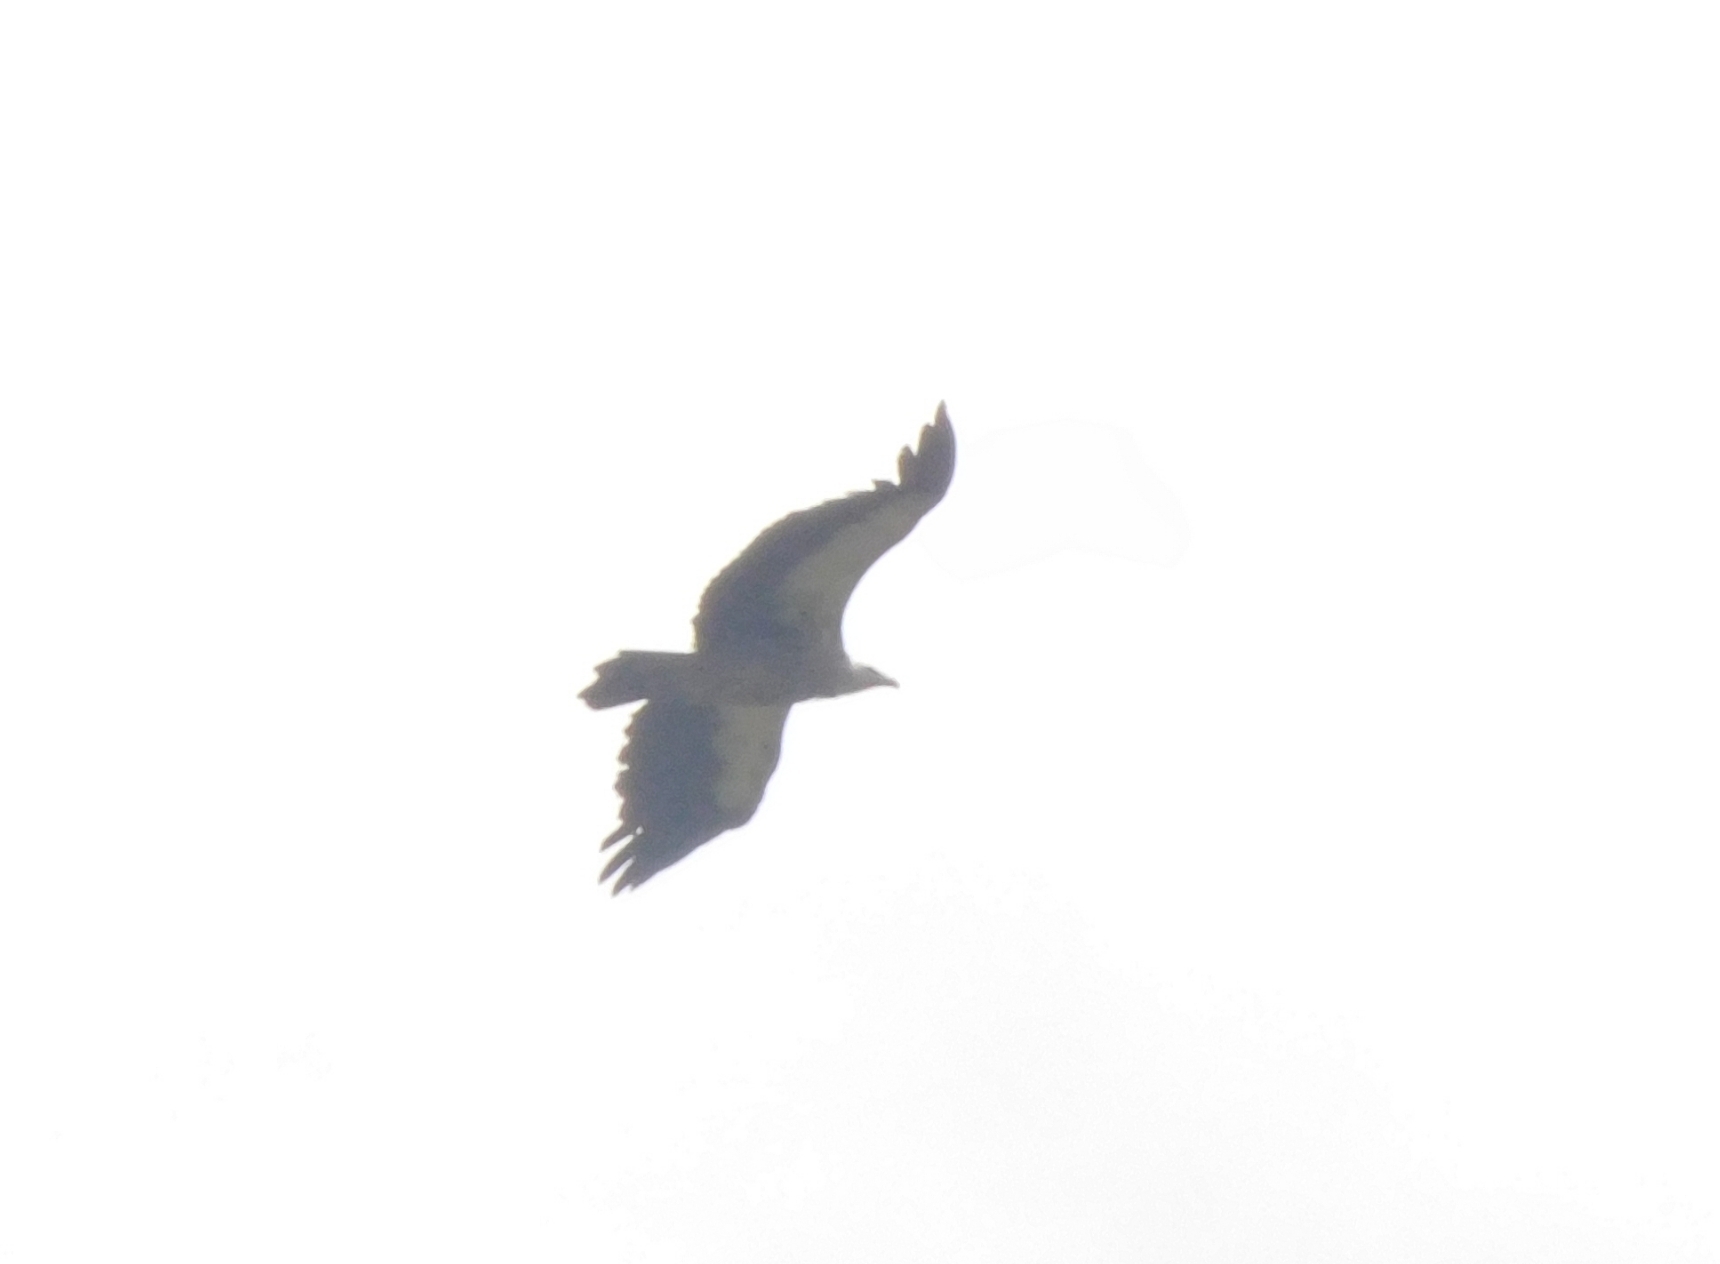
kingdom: Animalia
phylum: Chordata
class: Aves
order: Accipitriformes
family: Accipitridae
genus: Gyps
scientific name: Gyps himalayensis
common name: Himalayan griffon
